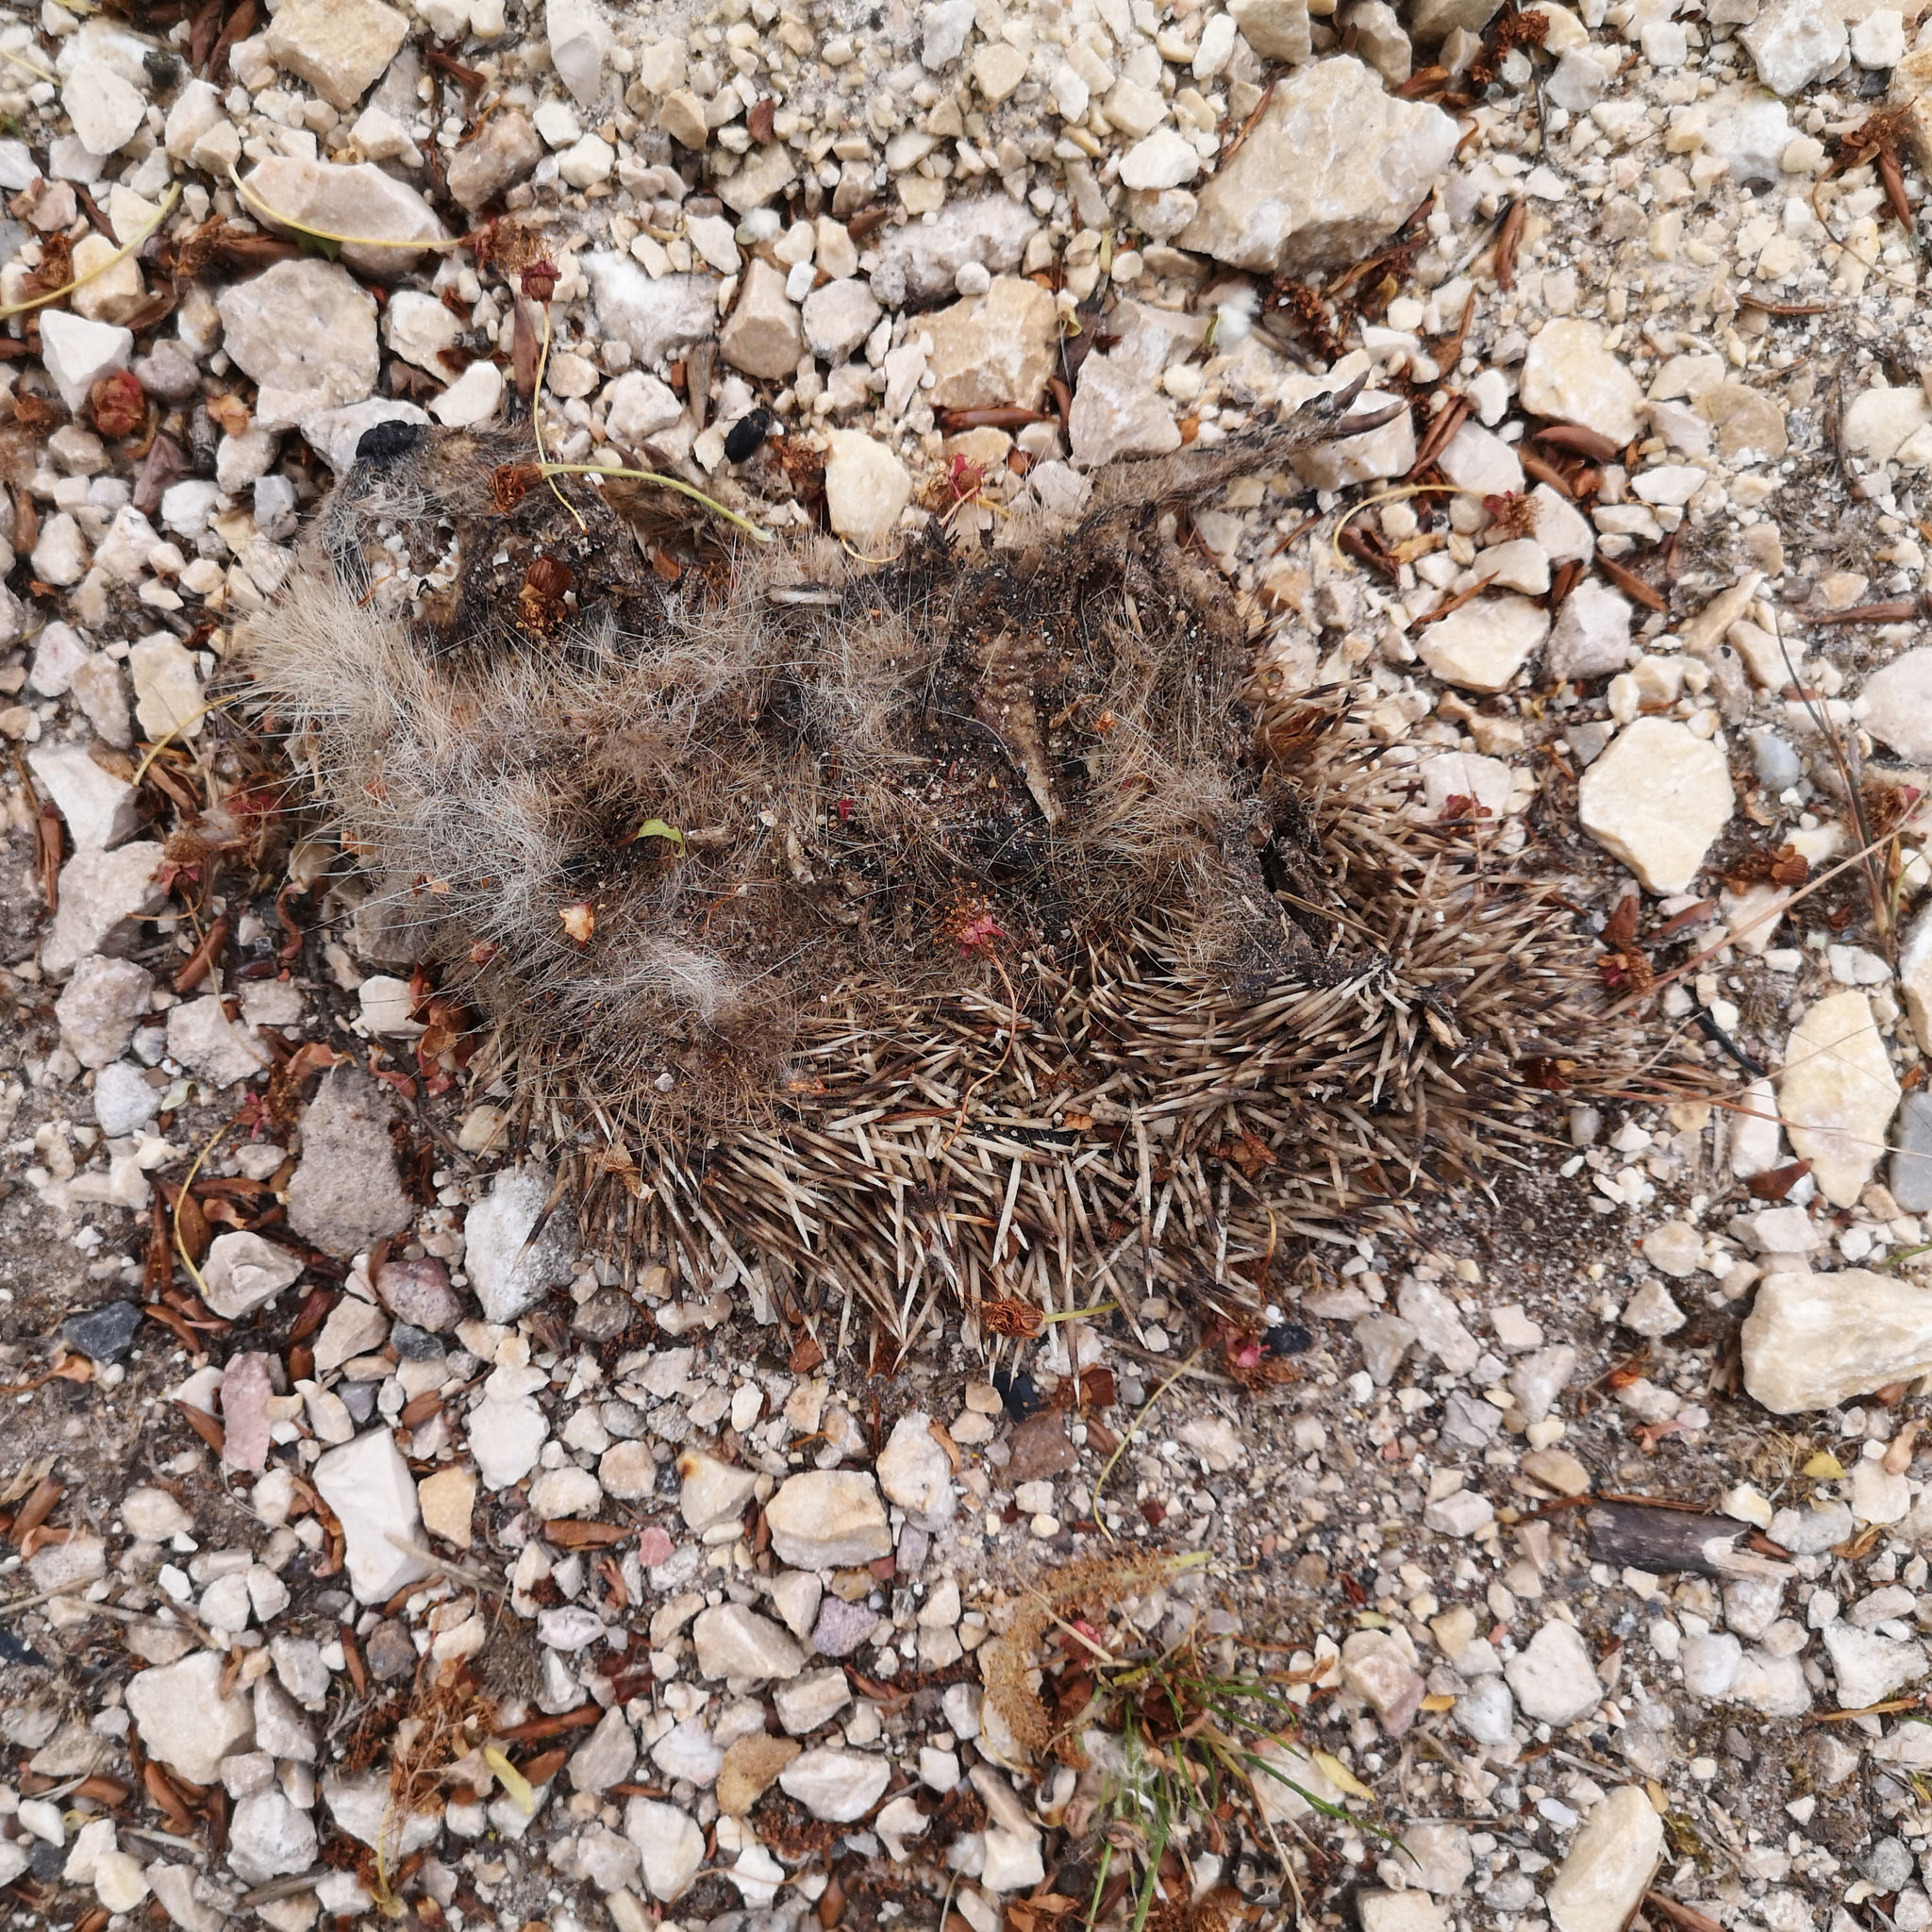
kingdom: Animalia
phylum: Chordata
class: Mammalia
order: Erinaceomorpha
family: Erinaceidae
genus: Erinaceus
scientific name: Erinaceus europaeus
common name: West european hedgehog
